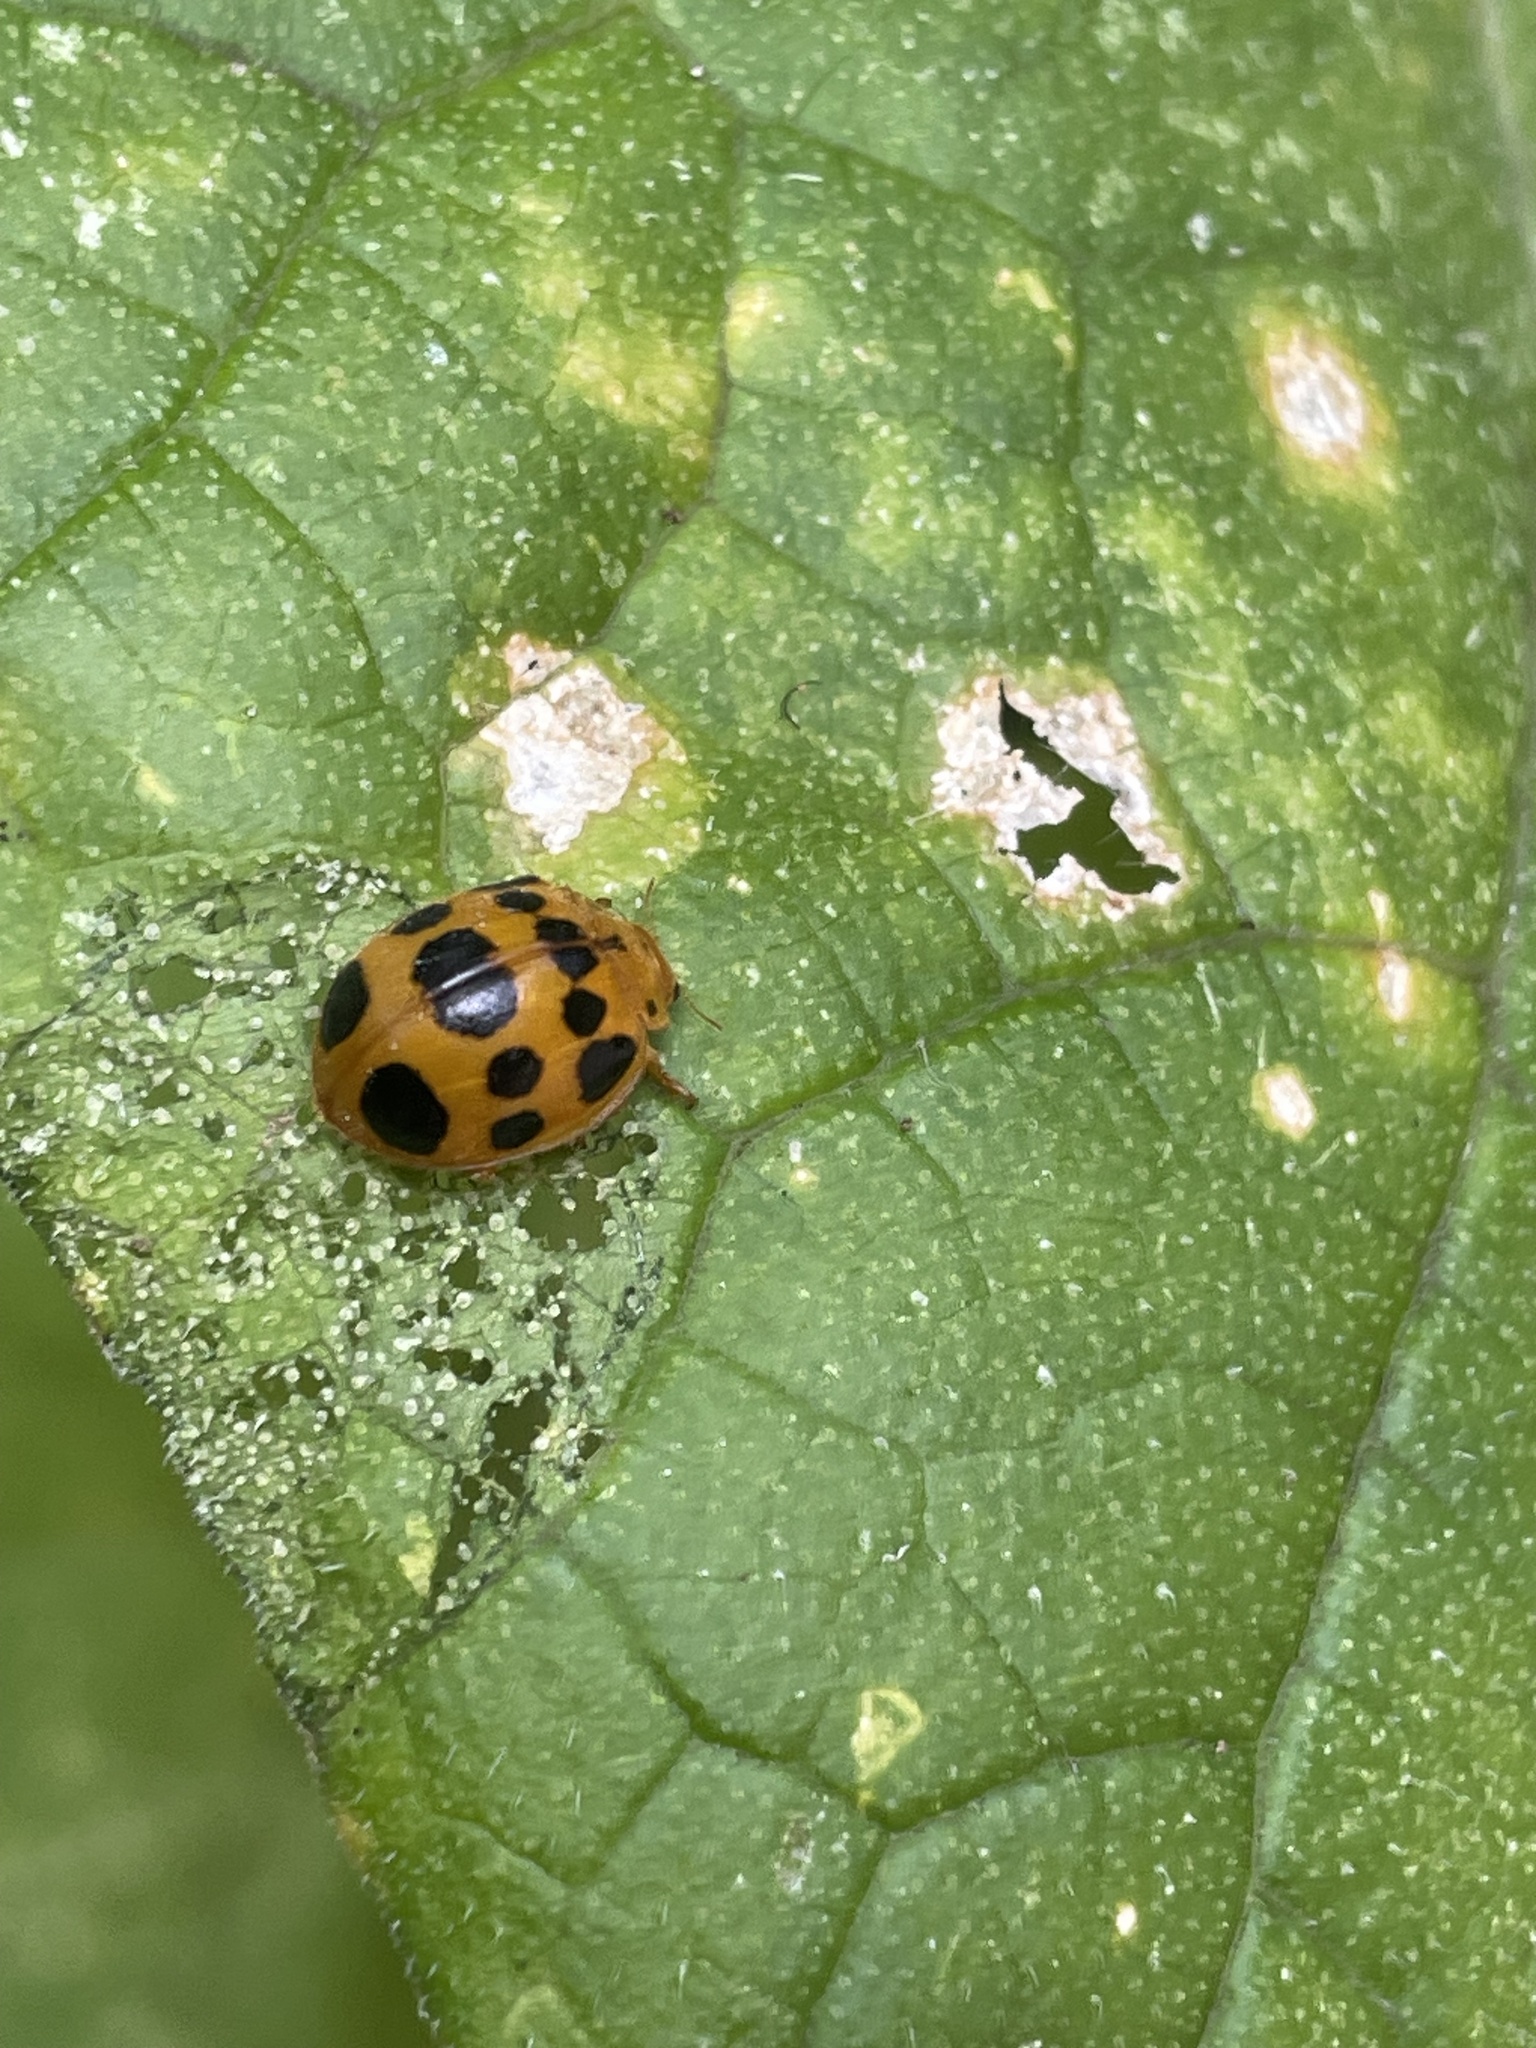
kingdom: Animalia
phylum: Arthropoda
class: Insecta
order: Coleoptera
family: Coccinellidae
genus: Epilachna
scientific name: Epilachna borealis
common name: Squash beetle
